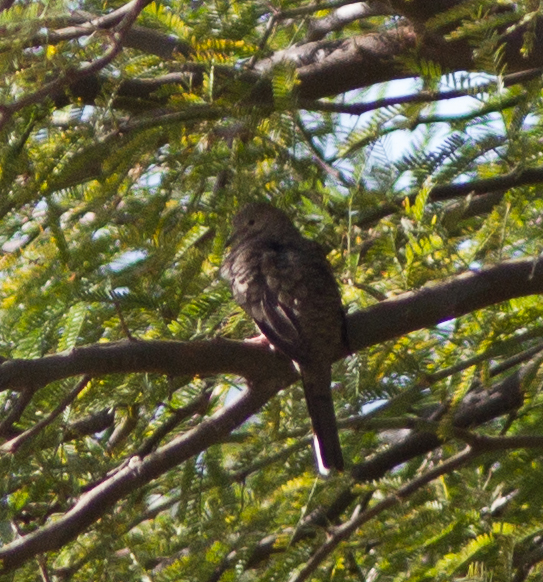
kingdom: Animalia
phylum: Chordata
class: Aves
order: Columbiformes
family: Columbidae
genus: Columbina
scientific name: Columbina inca
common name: Inca dove
